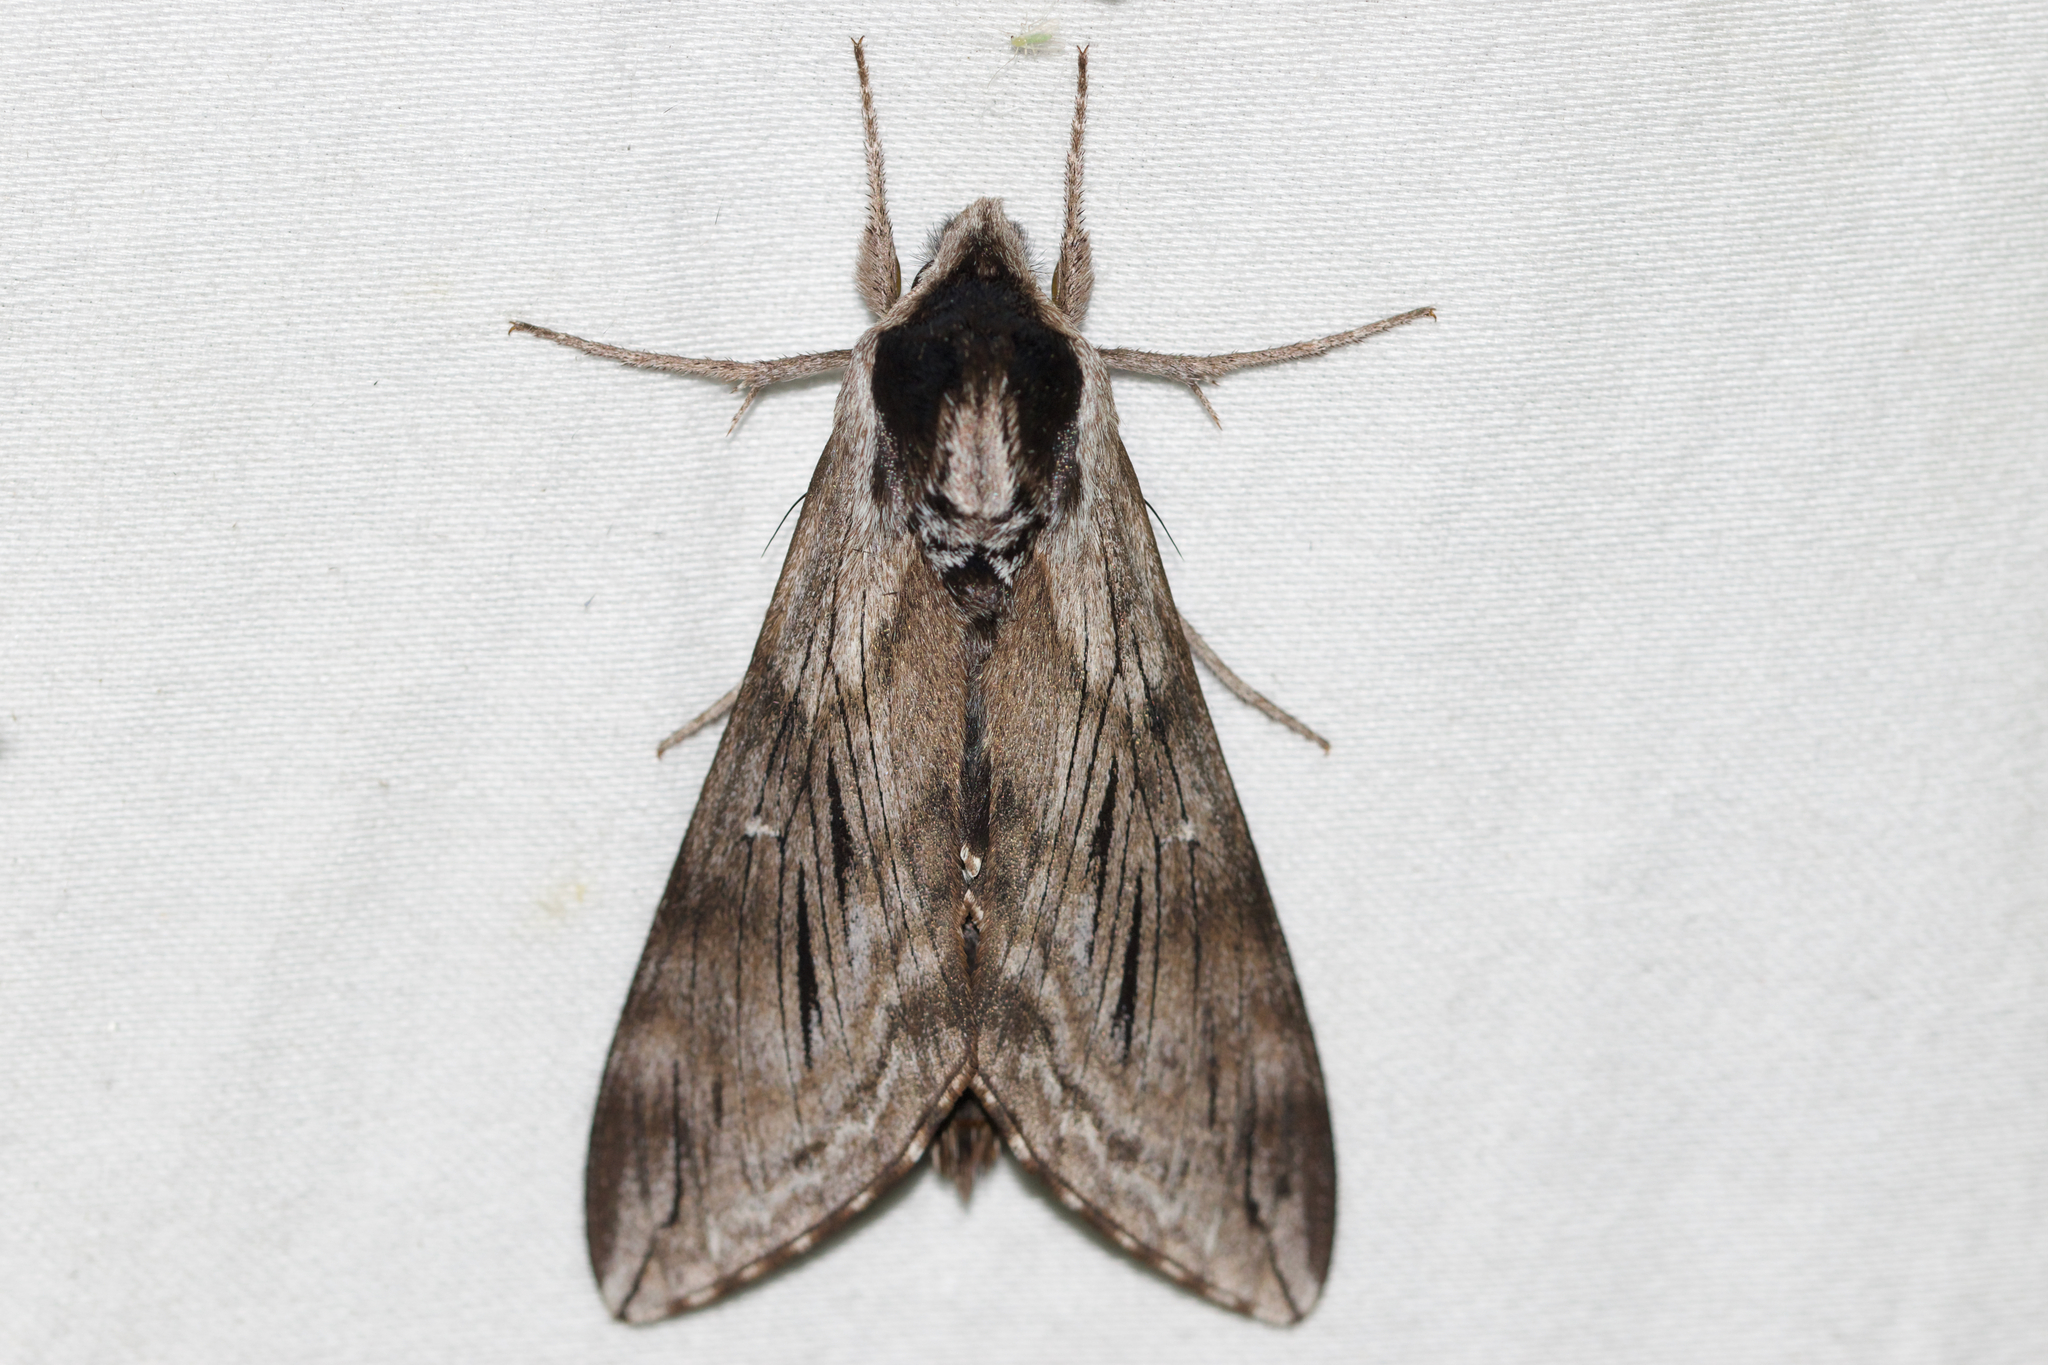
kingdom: Animalia
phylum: Arthropoda
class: Insecta
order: Lepidoptera
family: Sphingidae
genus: Sphinx
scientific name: Sphinx poecila
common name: Northern apple sphinx
